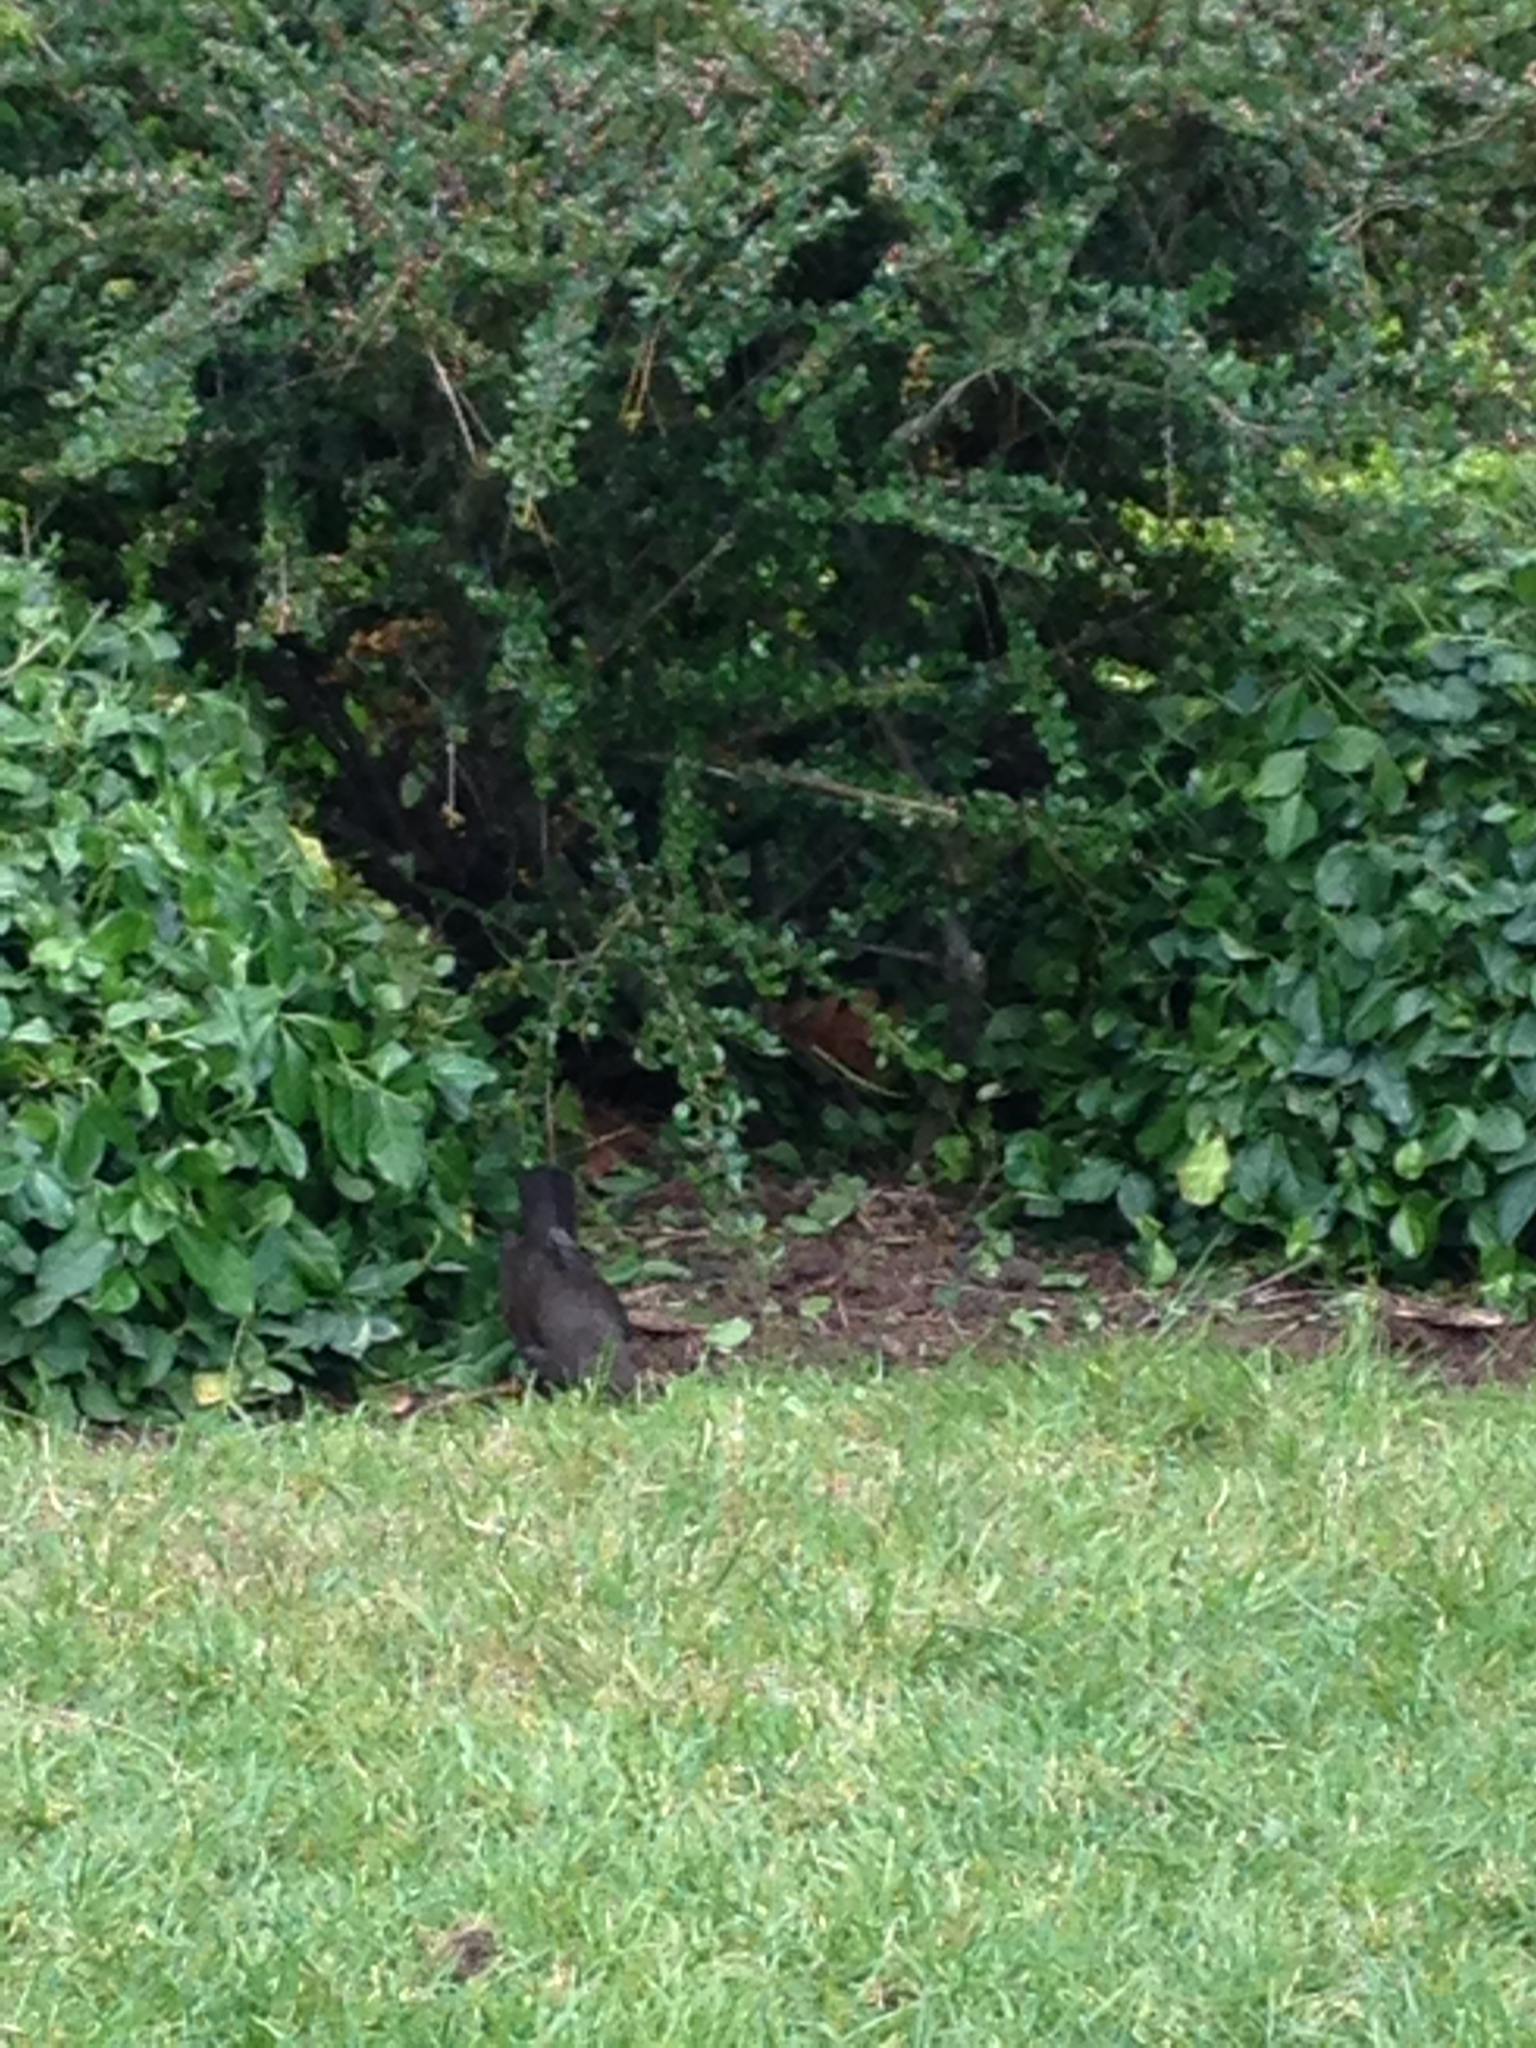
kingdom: Animalia
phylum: Chordata
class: Aves
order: Passeriformes
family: Turdidae
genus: Turdus
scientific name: Turdus merula
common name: Common blackbird
